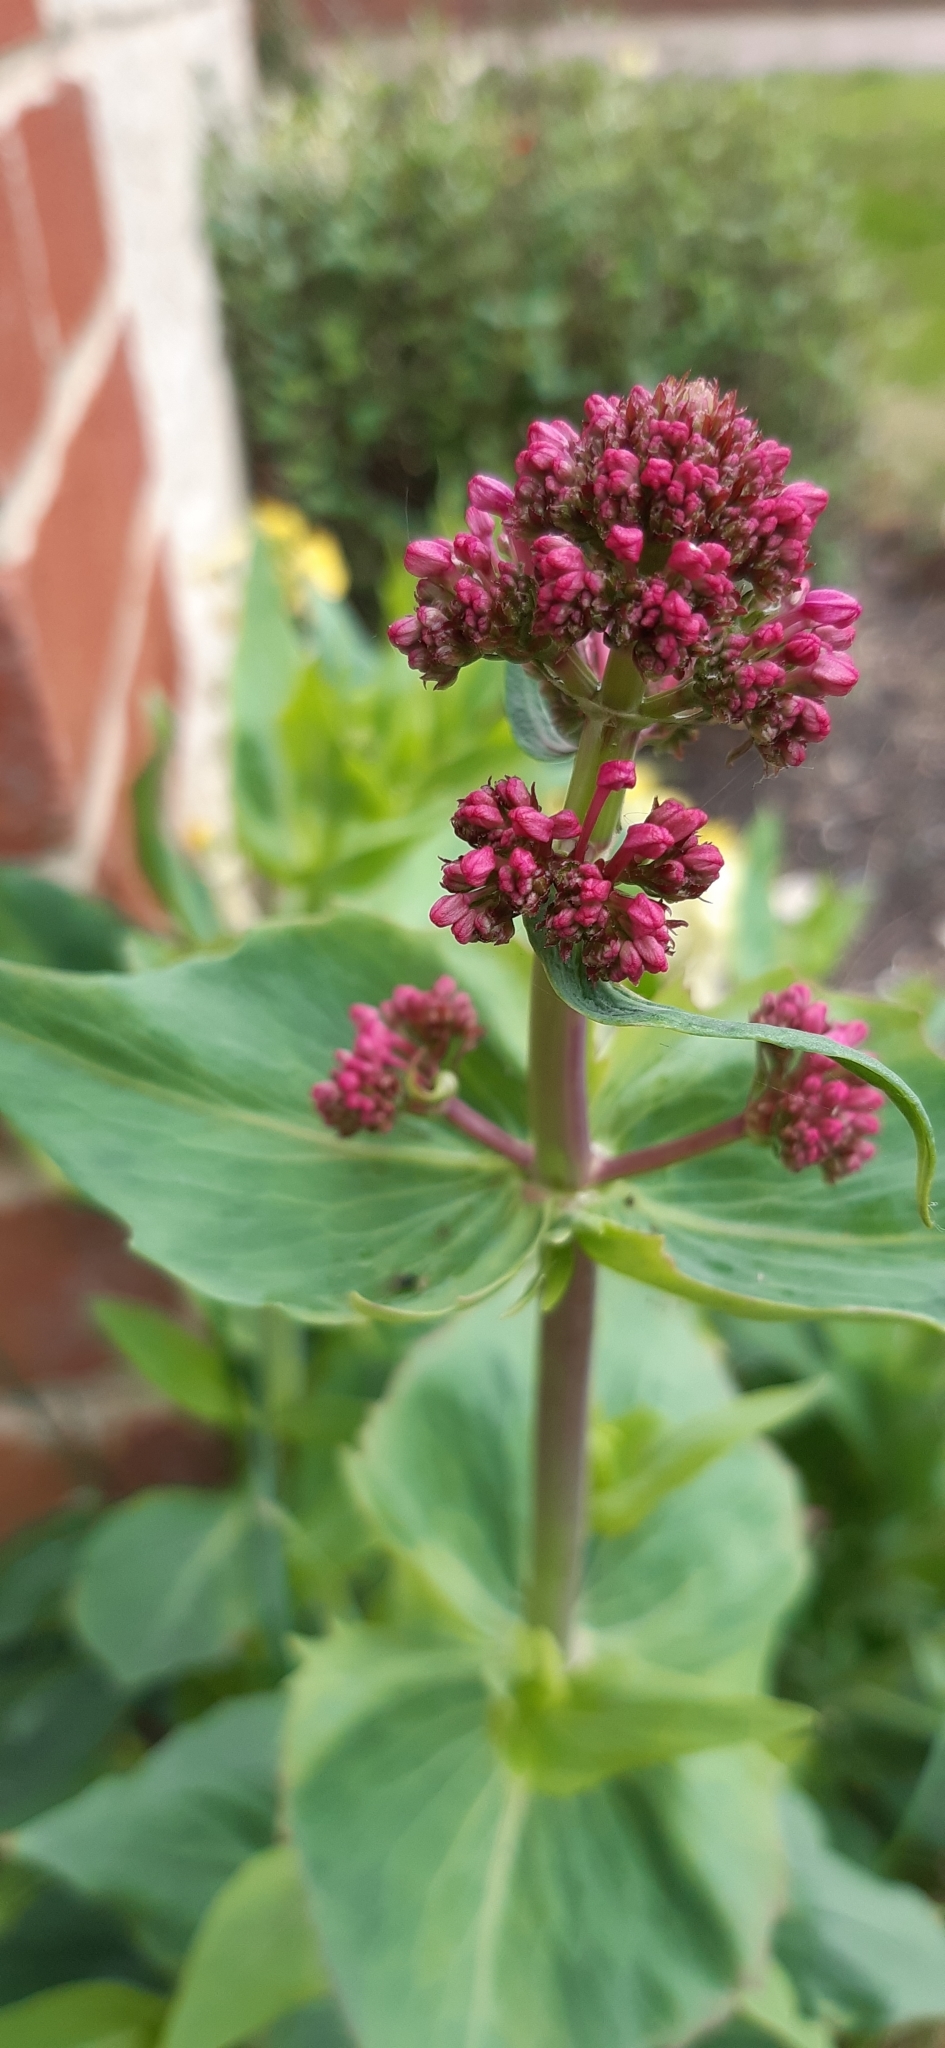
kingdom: Plantae
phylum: Tracheophyta
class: Magnoliopsida
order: Dipsacales
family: Caprifoliaceae
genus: Centranthus
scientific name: Centranthus ruber
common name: Red valerian
